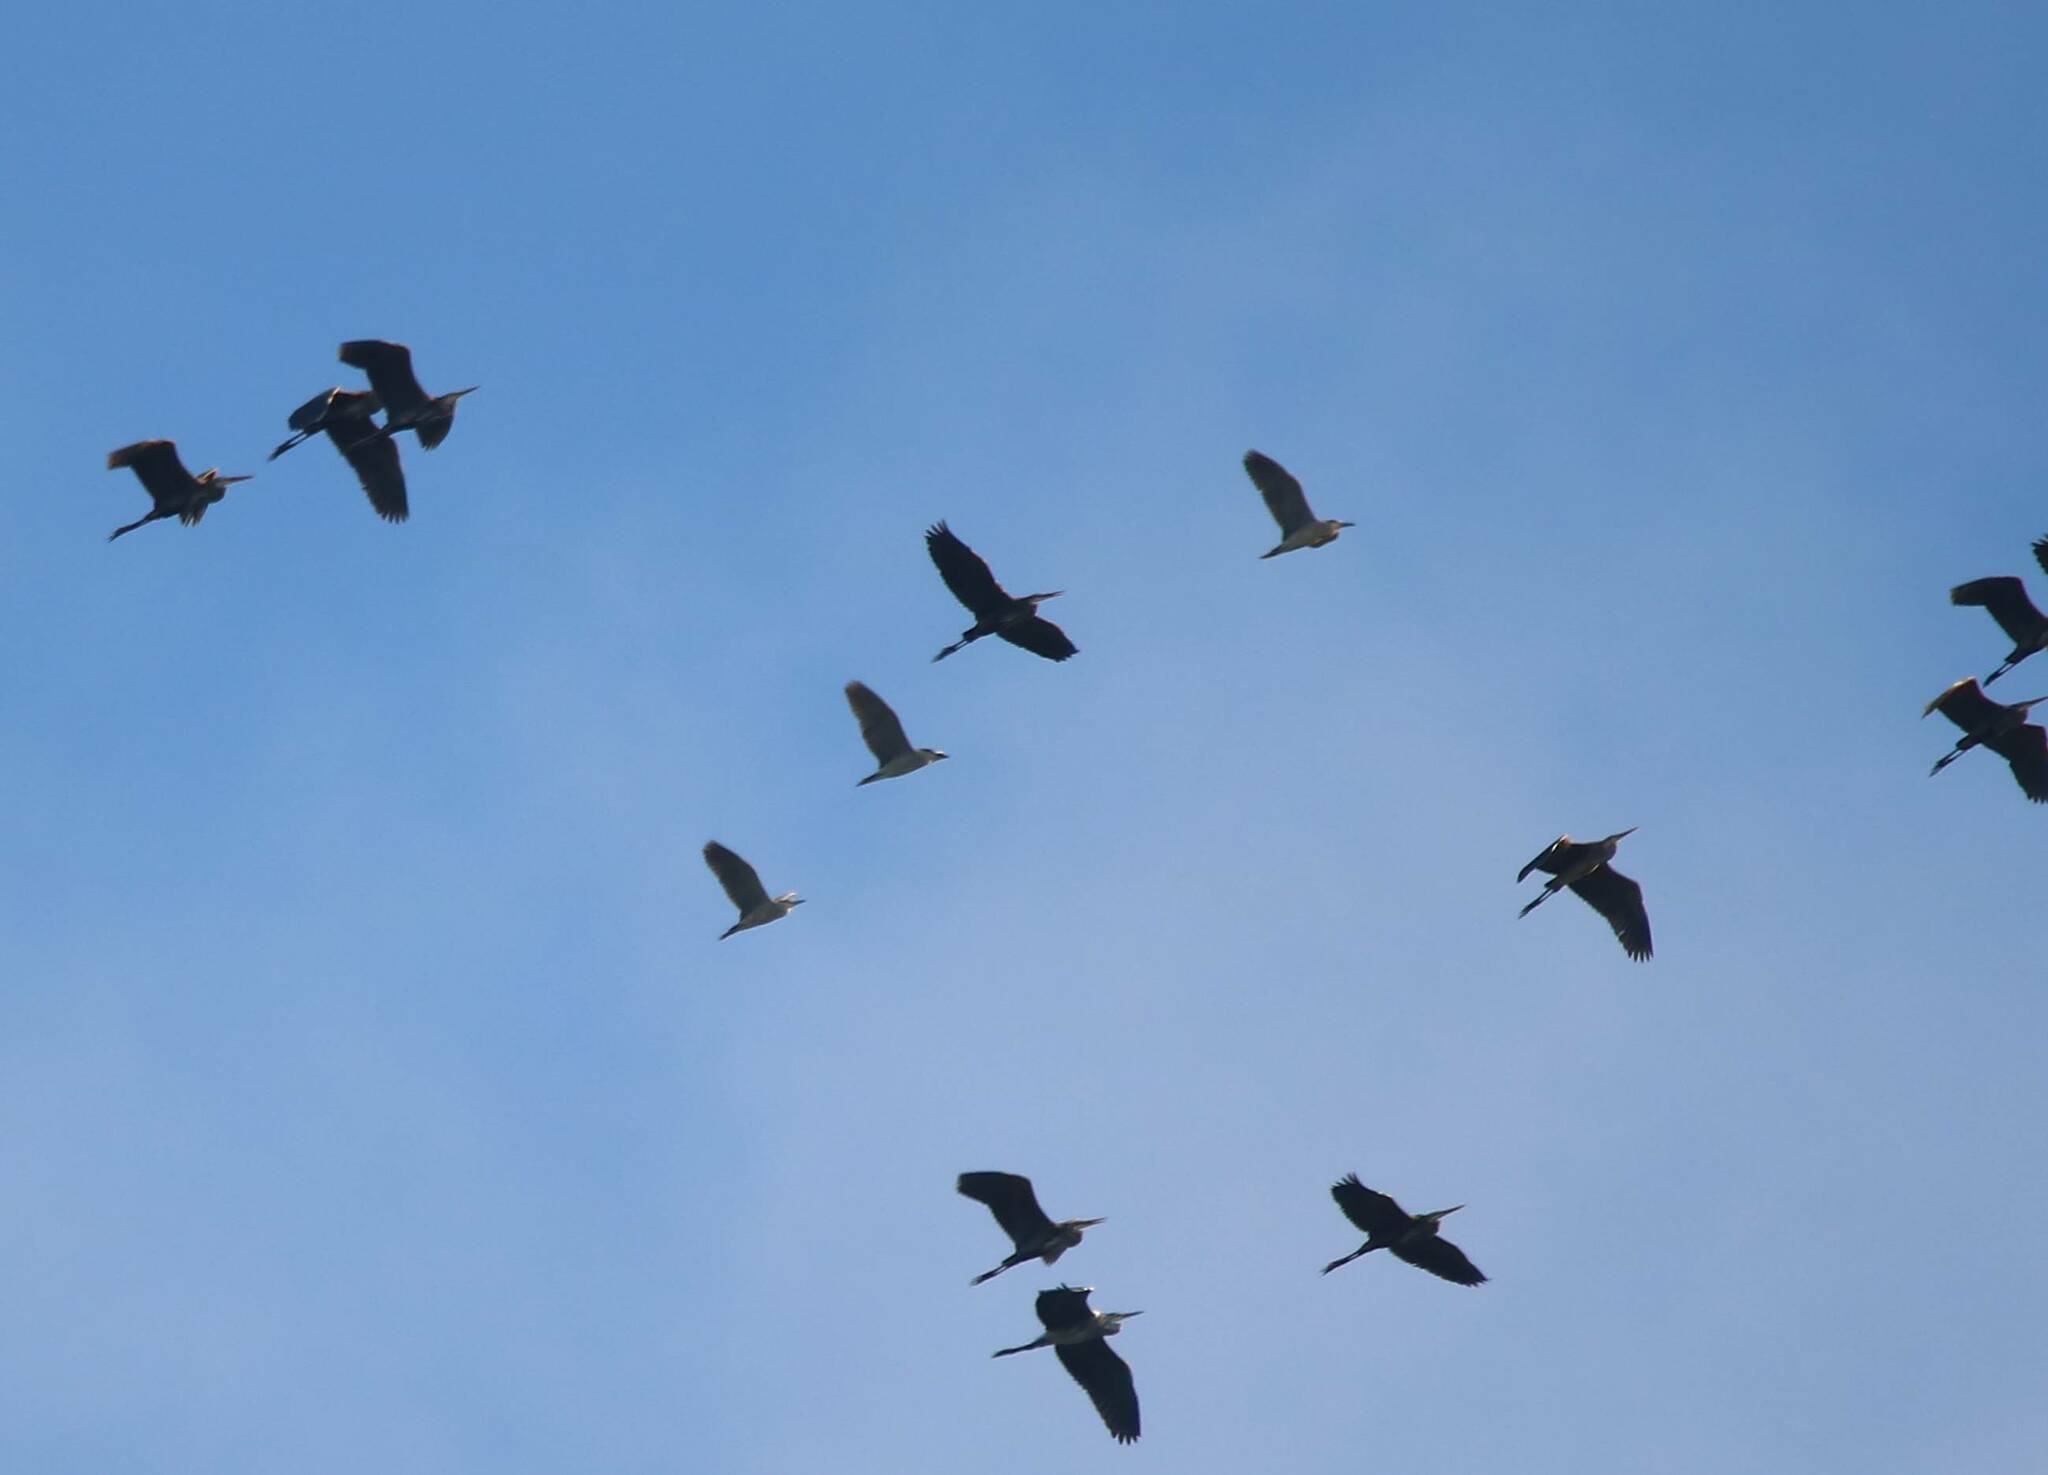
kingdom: Animalia
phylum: Chordata
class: Aves
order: Pelecaniformes
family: Ardeidae
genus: Ardea
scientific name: Ardea purpurea
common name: Purple heron
